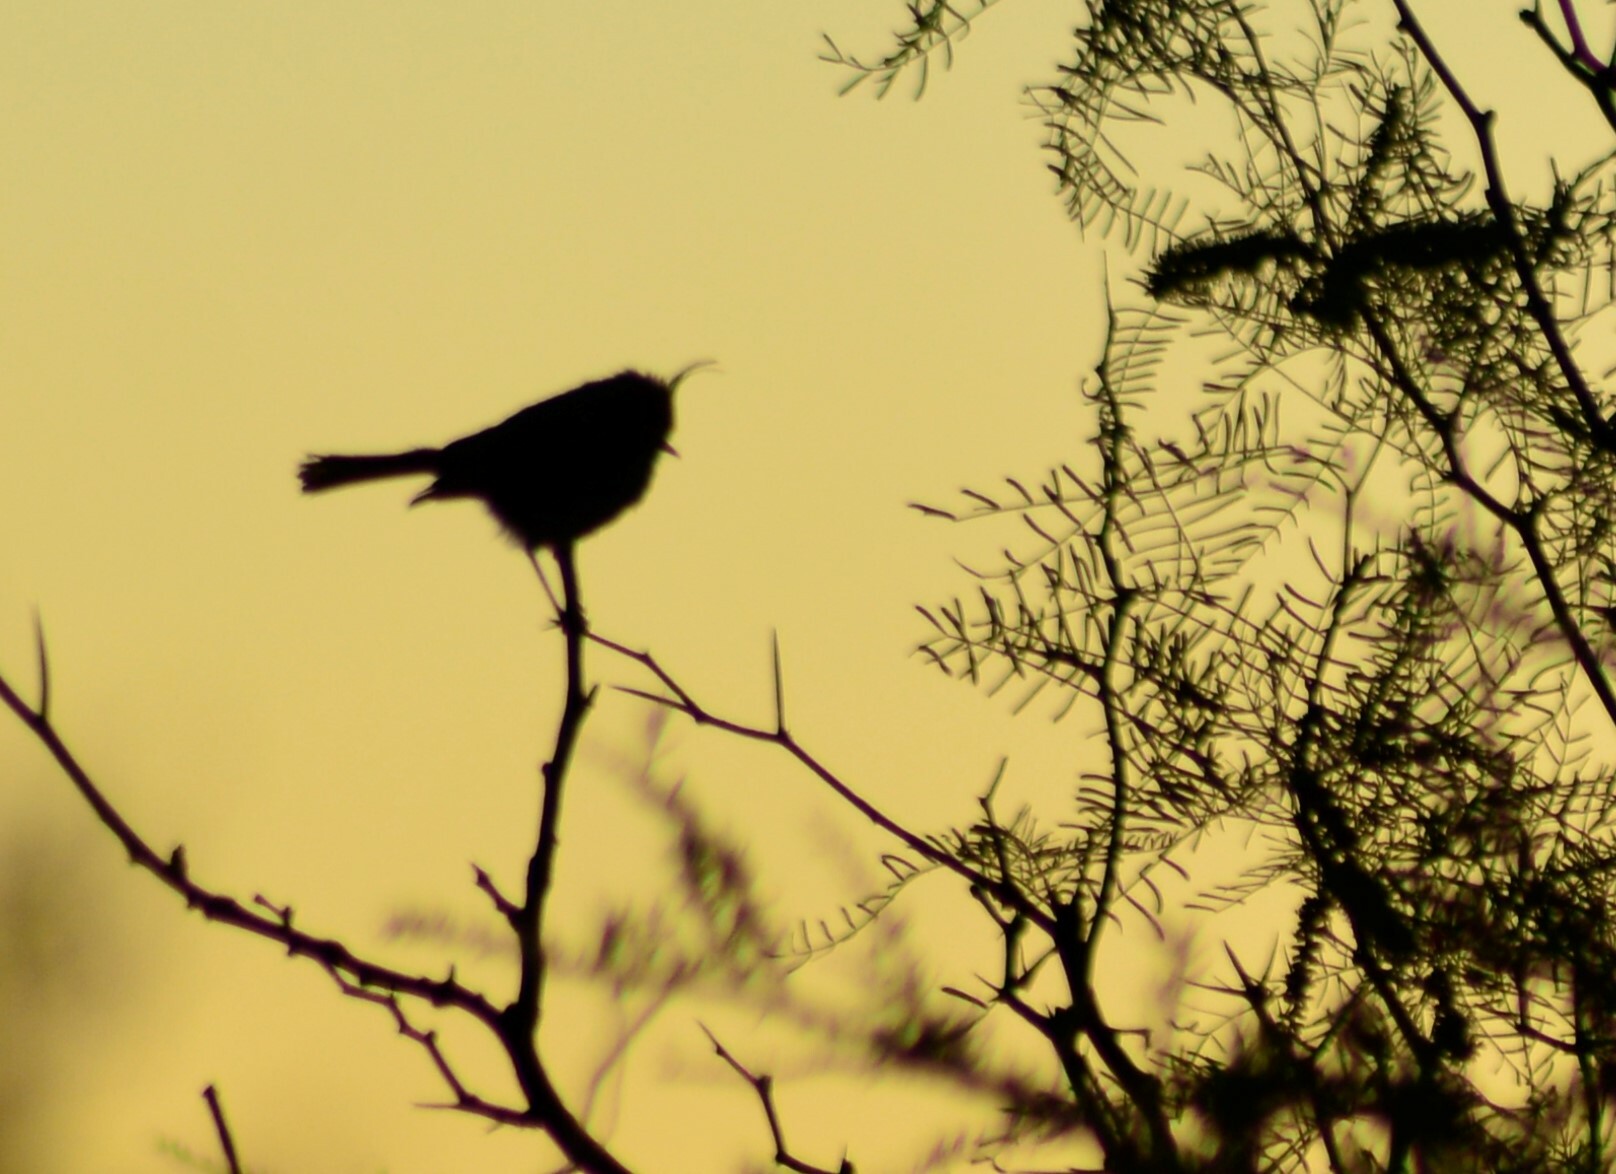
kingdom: Animalia
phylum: Chordata
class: Aves
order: Passeriformes
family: Tyrannidae
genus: Anairetes
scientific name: Anairetes parulus
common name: Tufted tit-tyrant
